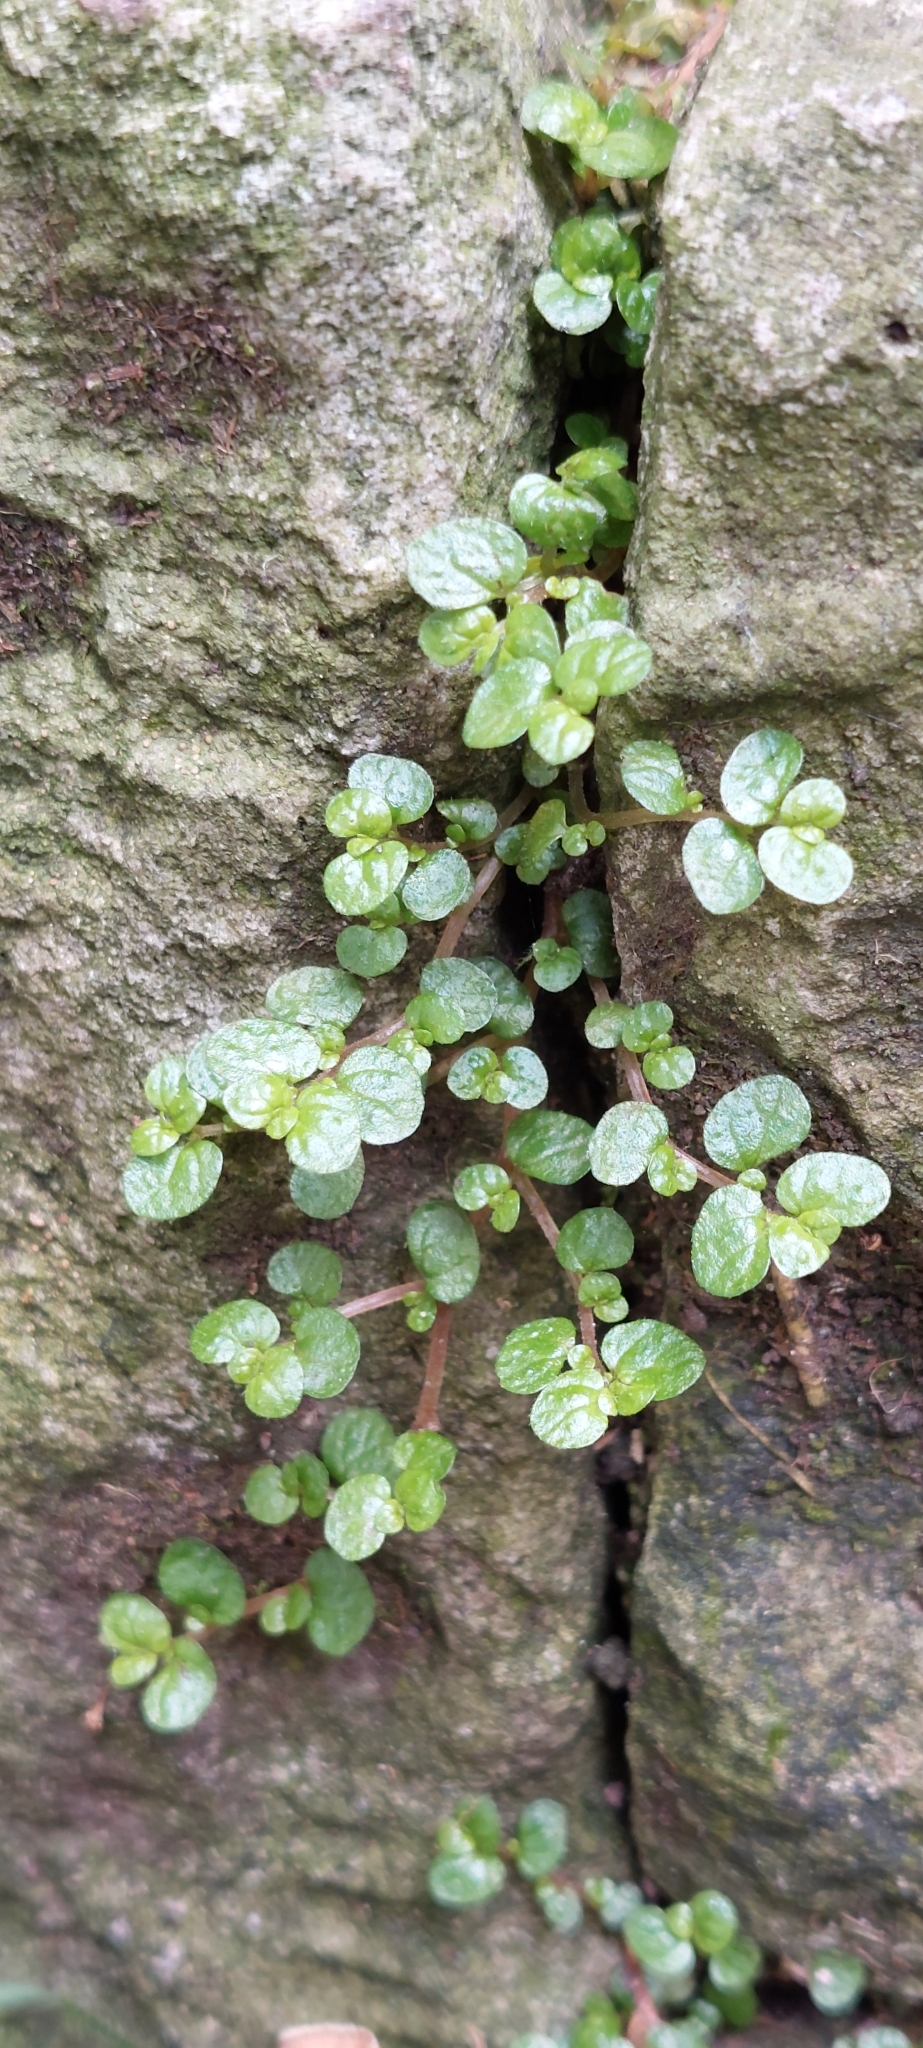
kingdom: Plantae
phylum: Tracheophyta
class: Magnoliopsida
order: Rosales
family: Urticaceae
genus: Soleirolia
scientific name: Soleirolia soleirolii
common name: Mind-your-own-business
